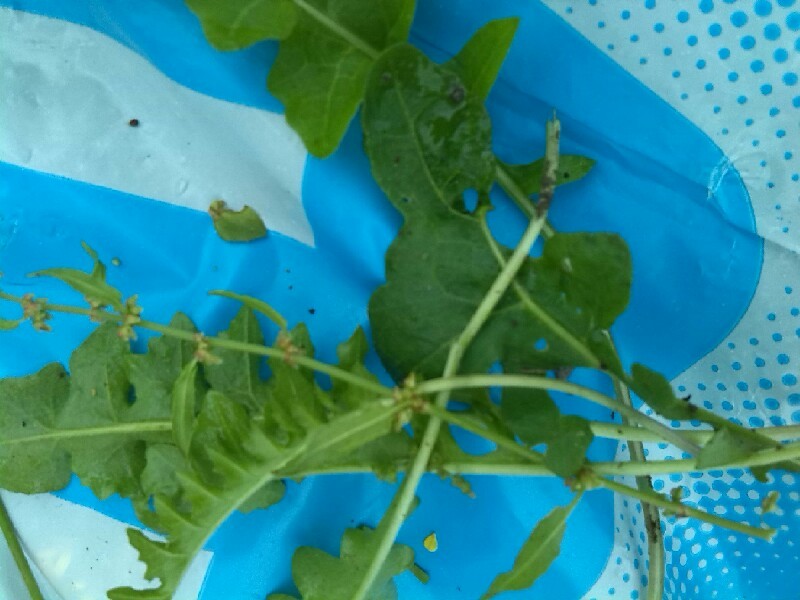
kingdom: Plantae
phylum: Tracheophyta
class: Magnoliopsida
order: Brassicales
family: Brassicaceae
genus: Sisymbrium
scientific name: Sisymbrium chrysanthum
